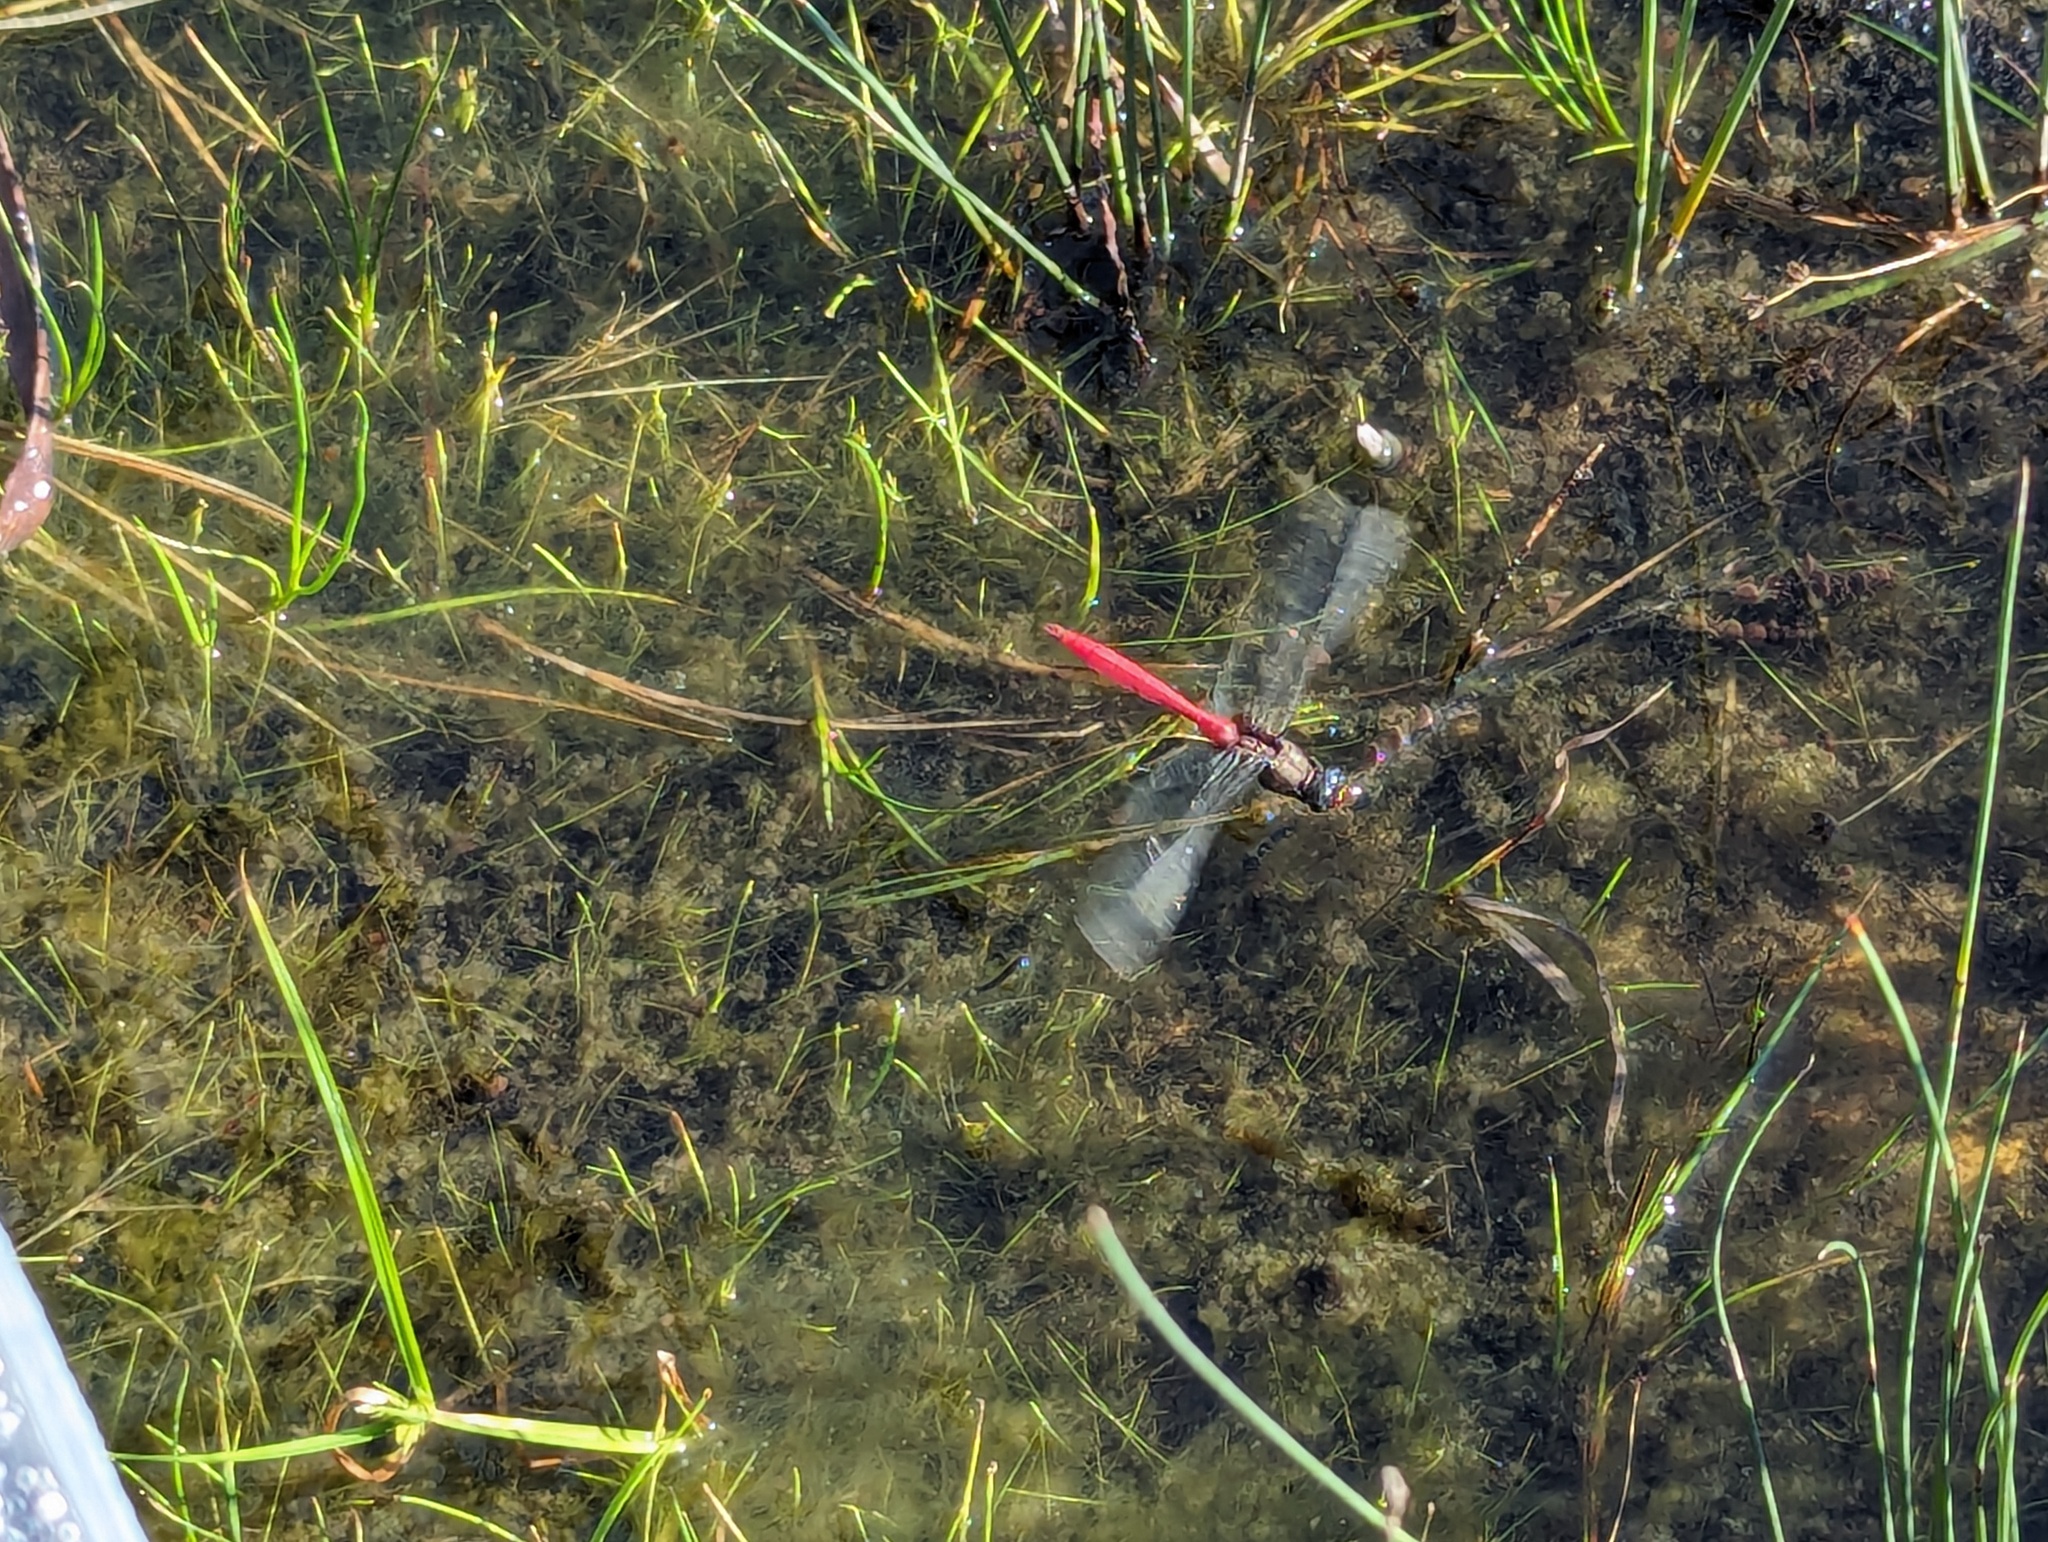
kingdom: Animalia
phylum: Arthropoda
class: Insecta
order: Odonata
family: Libellulidae
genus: Orthetrum
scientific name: Orthetrum villosovittatum
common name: Firery skimmer
